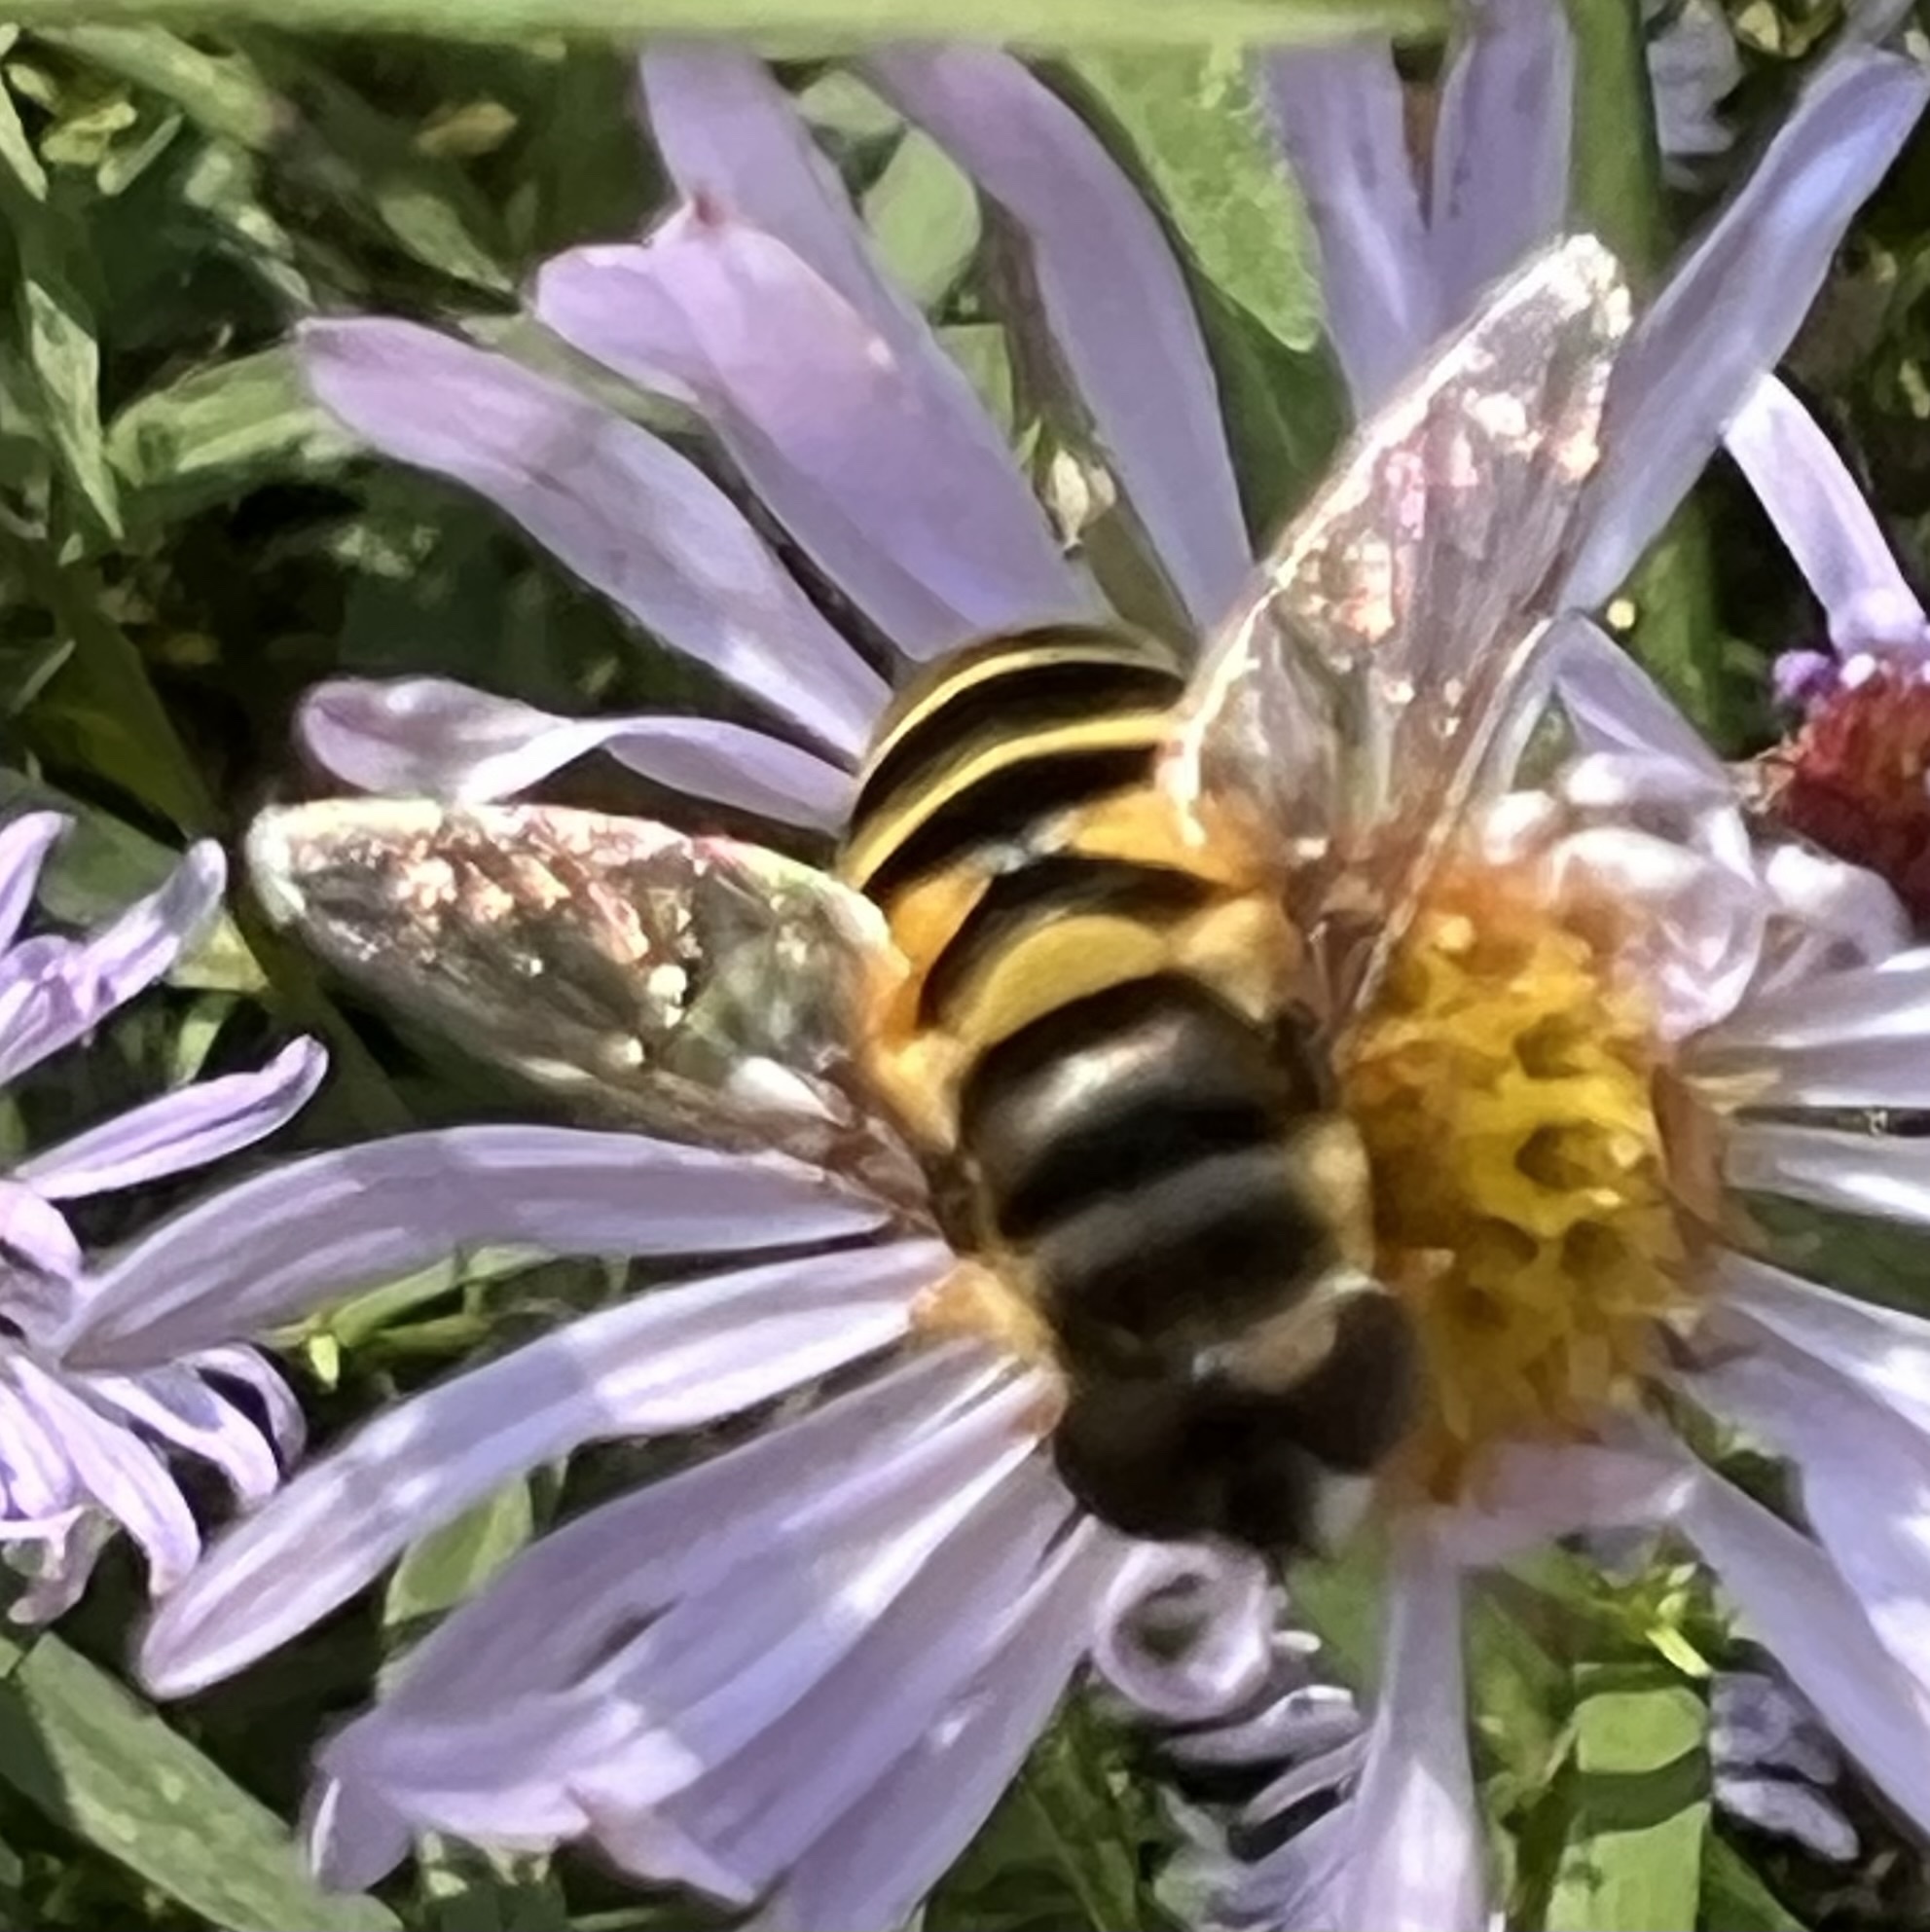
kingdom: Animalia
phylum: Arthropoda
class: Insecta
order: Diptera
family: Syrphidae
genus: Eristalis
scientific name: Eristalis transversa
